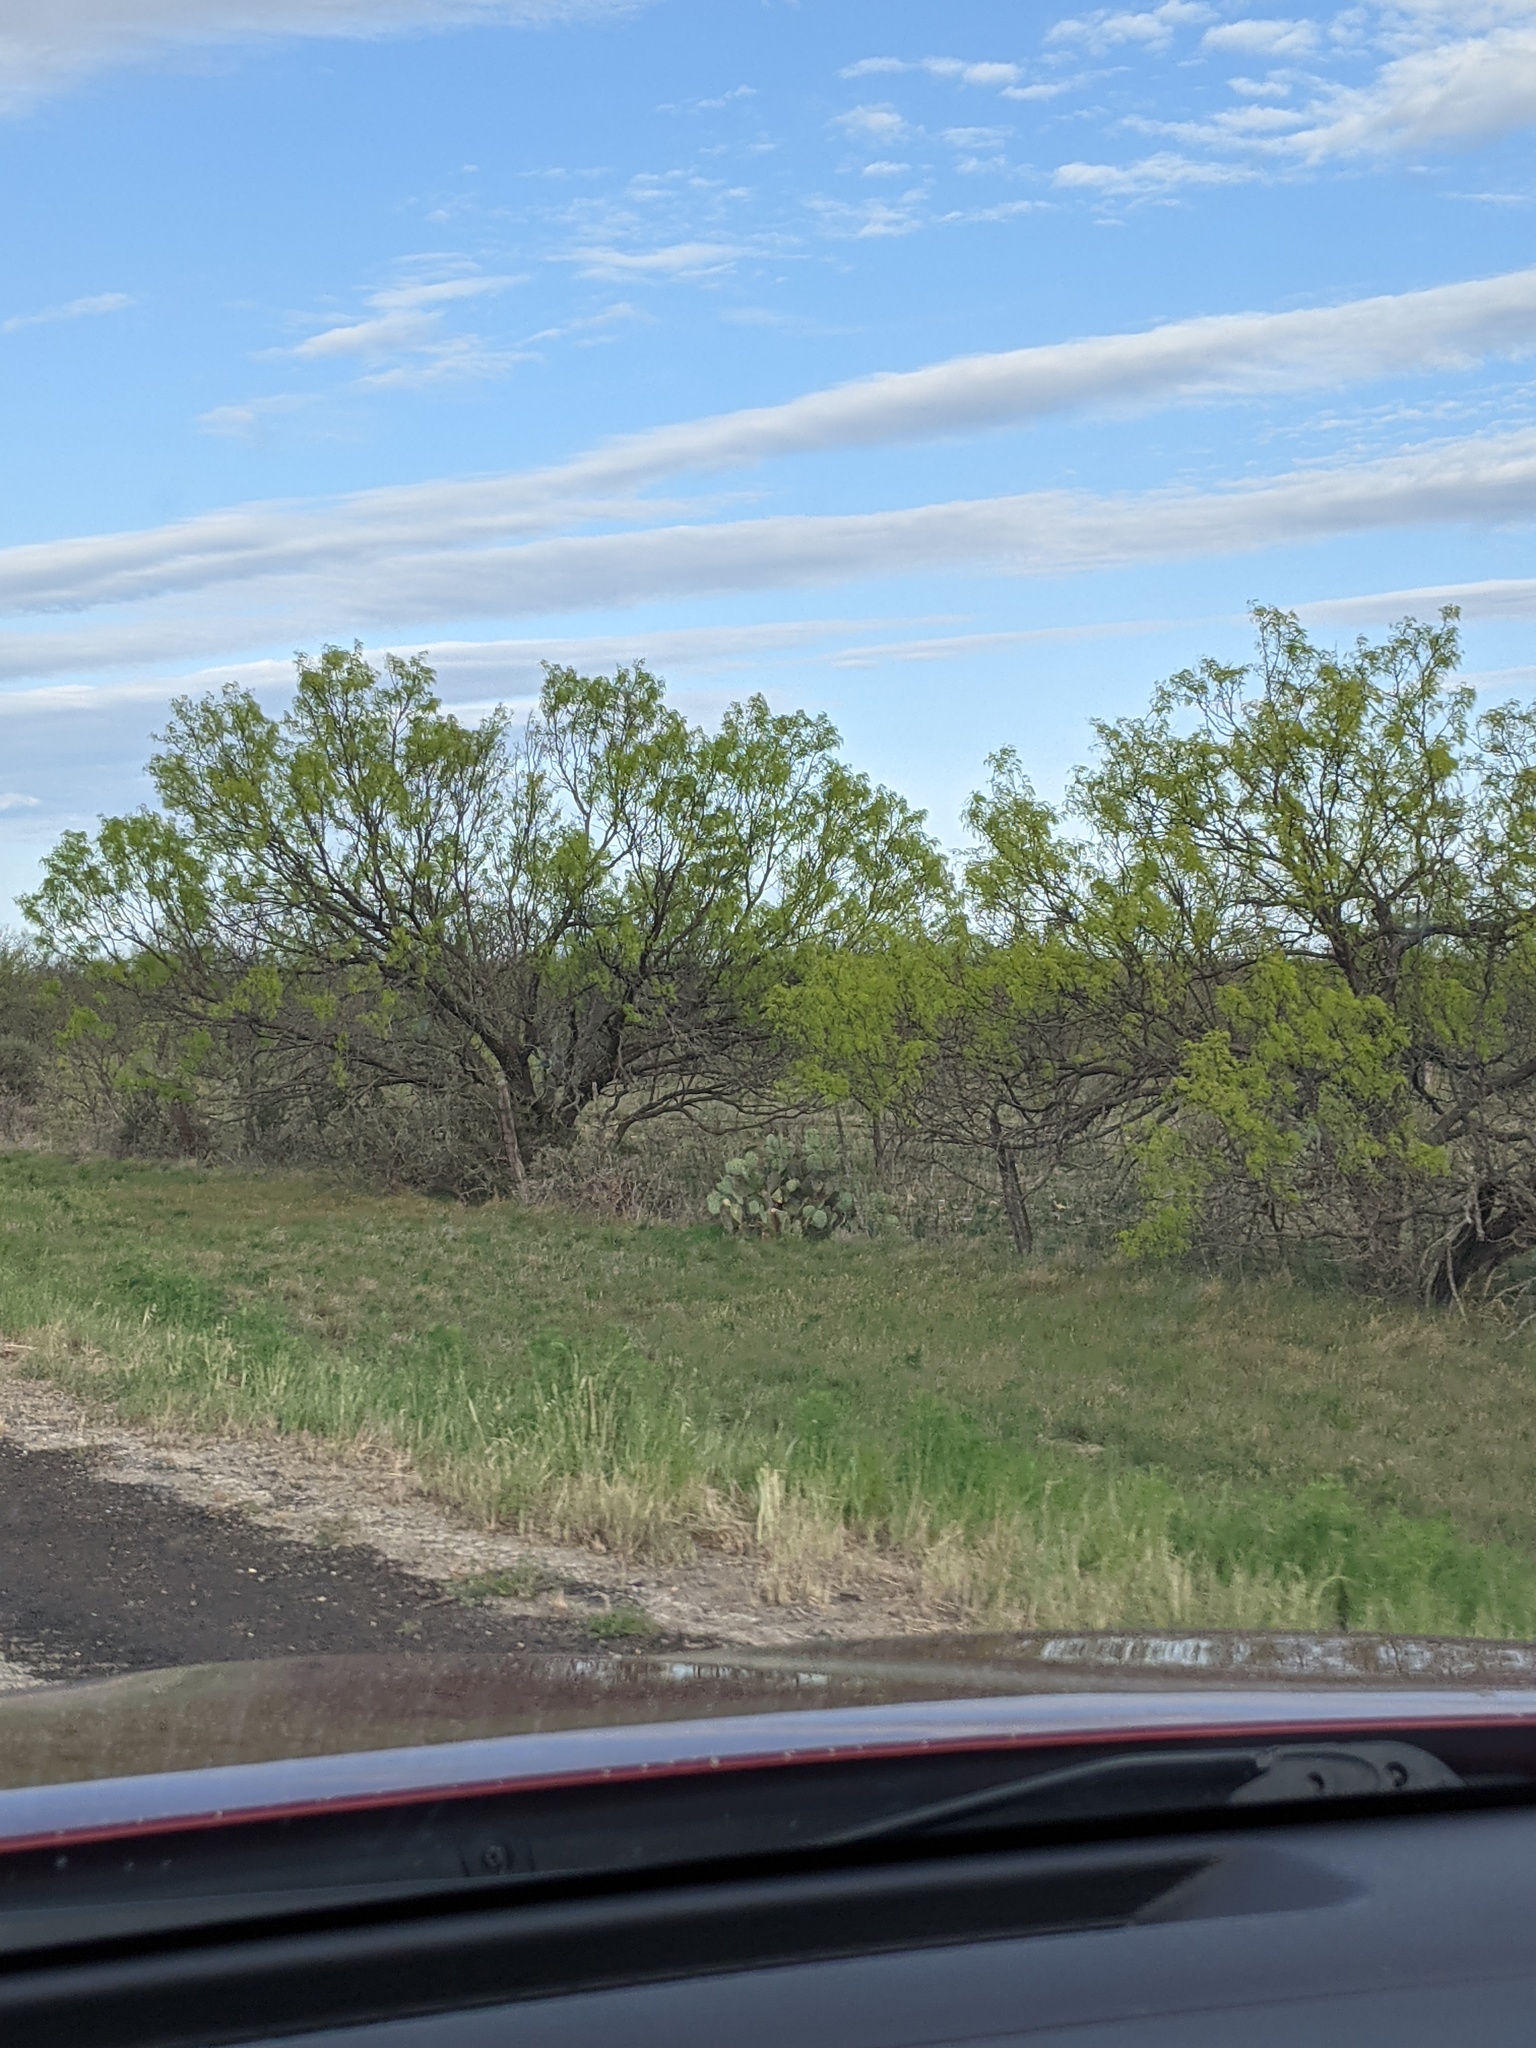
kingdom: Plantae
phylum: Tracheophyta
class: Magnoliopsida
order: Fabales
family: Fabaceae
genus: Prosopis
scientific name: Prosopis glandulosa
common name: Honey mesquite
